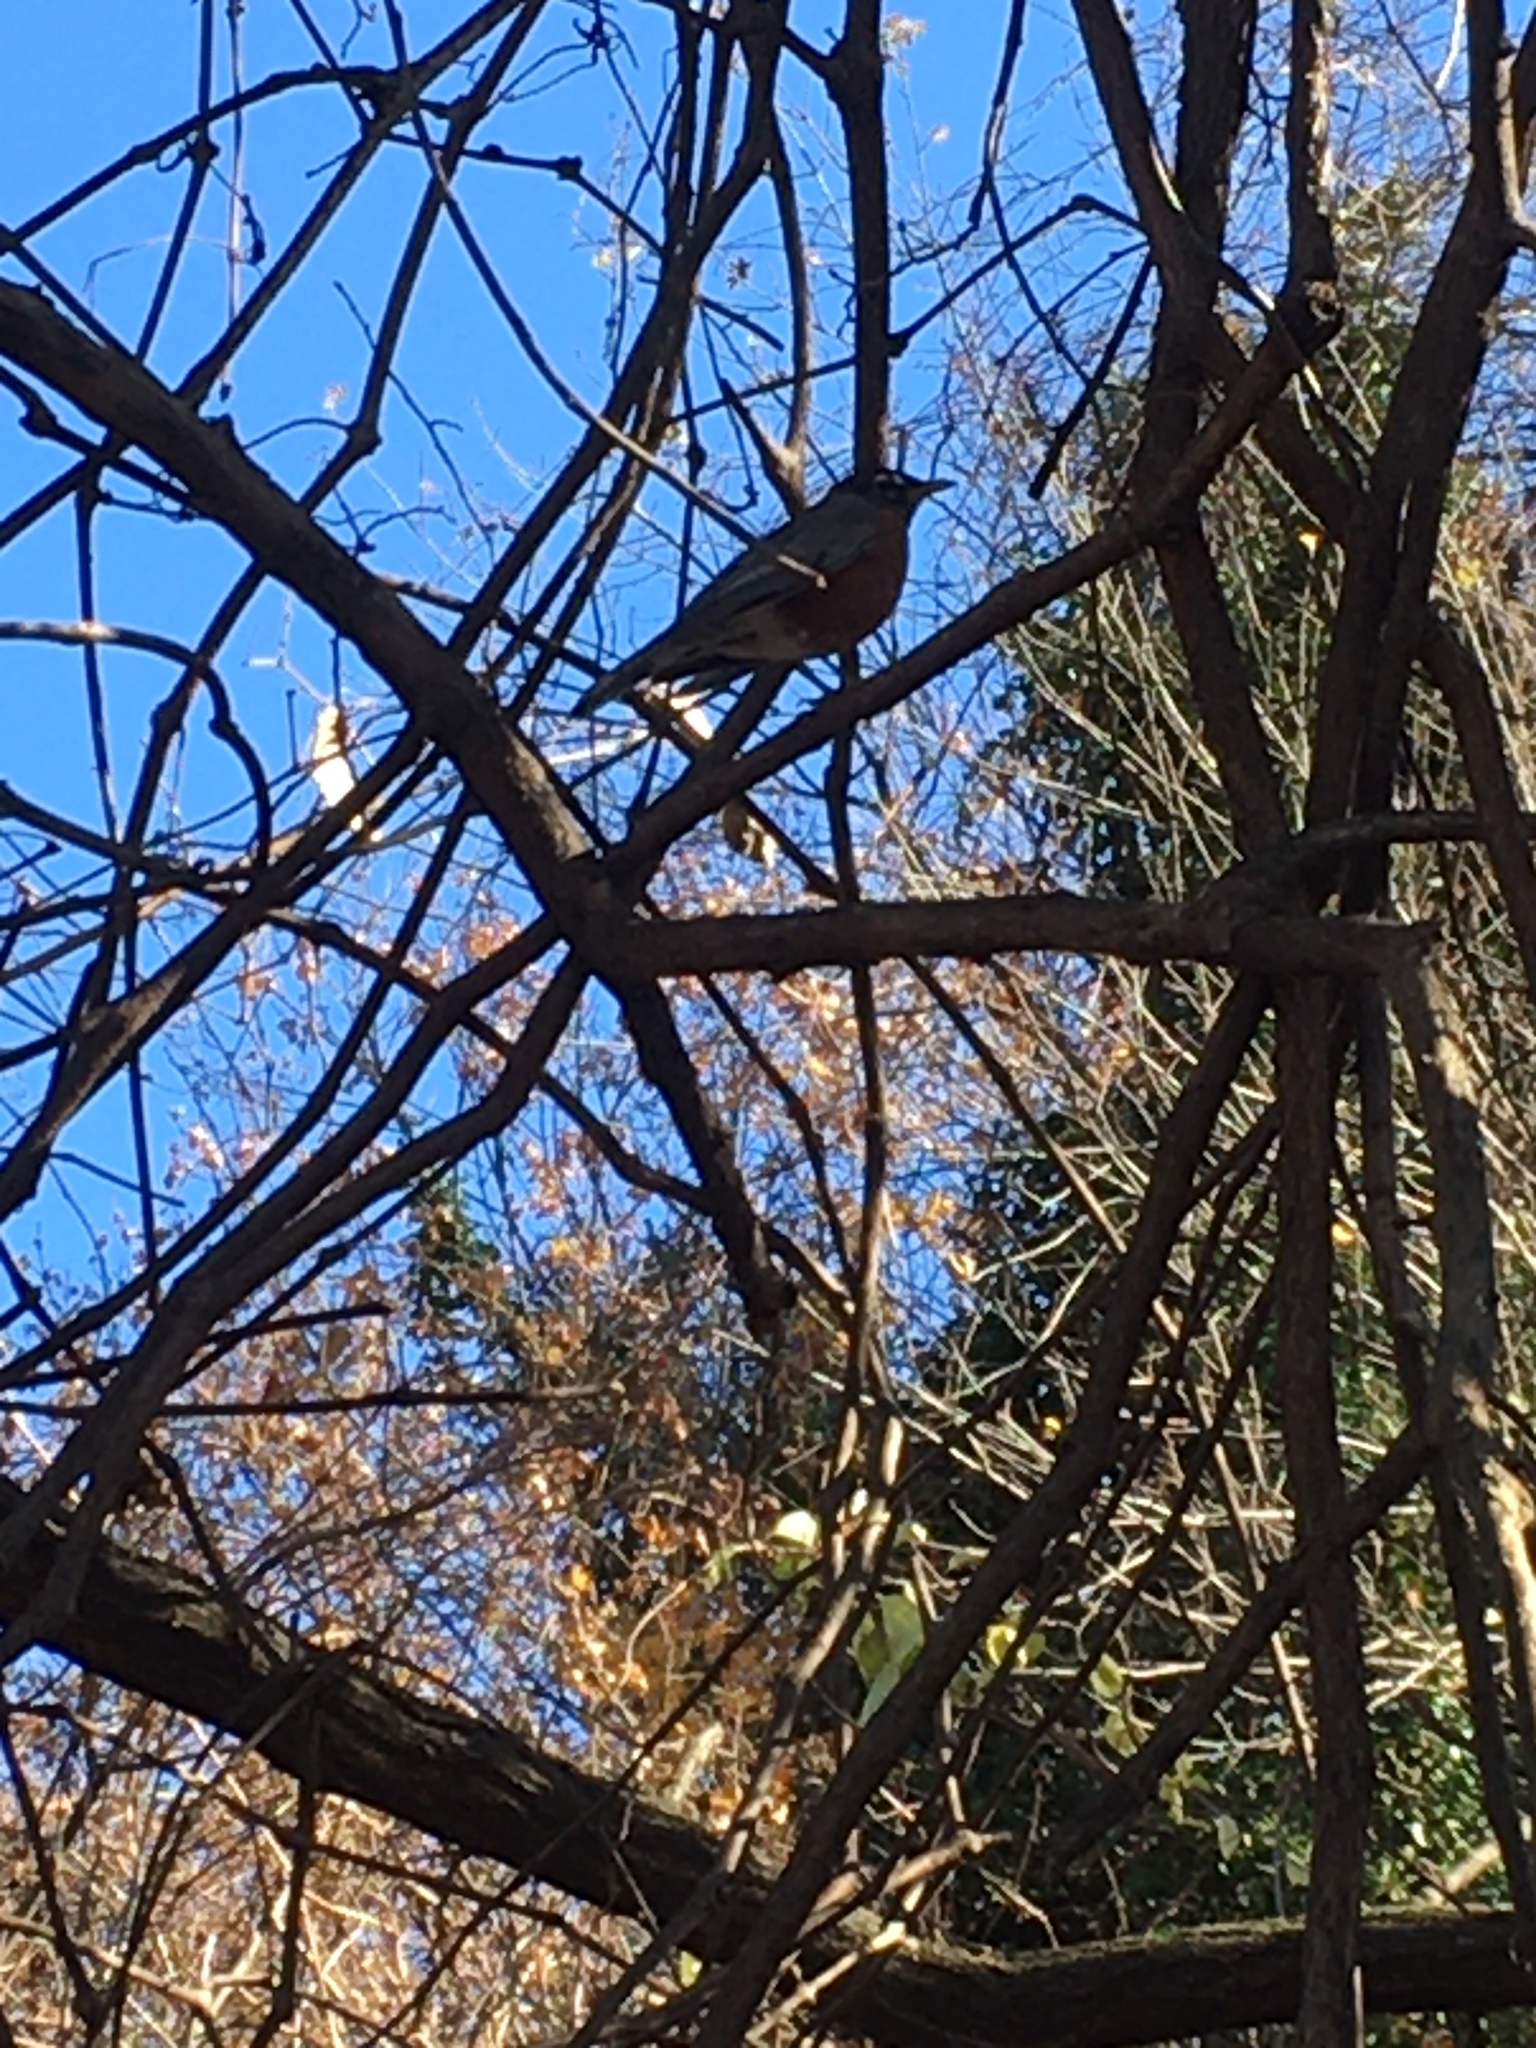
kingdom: Animalia
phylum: Chordata
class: Aves
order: Passeriformes
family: Turdidae
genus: Turdus
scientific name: Turdus migratorius
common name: American robin
